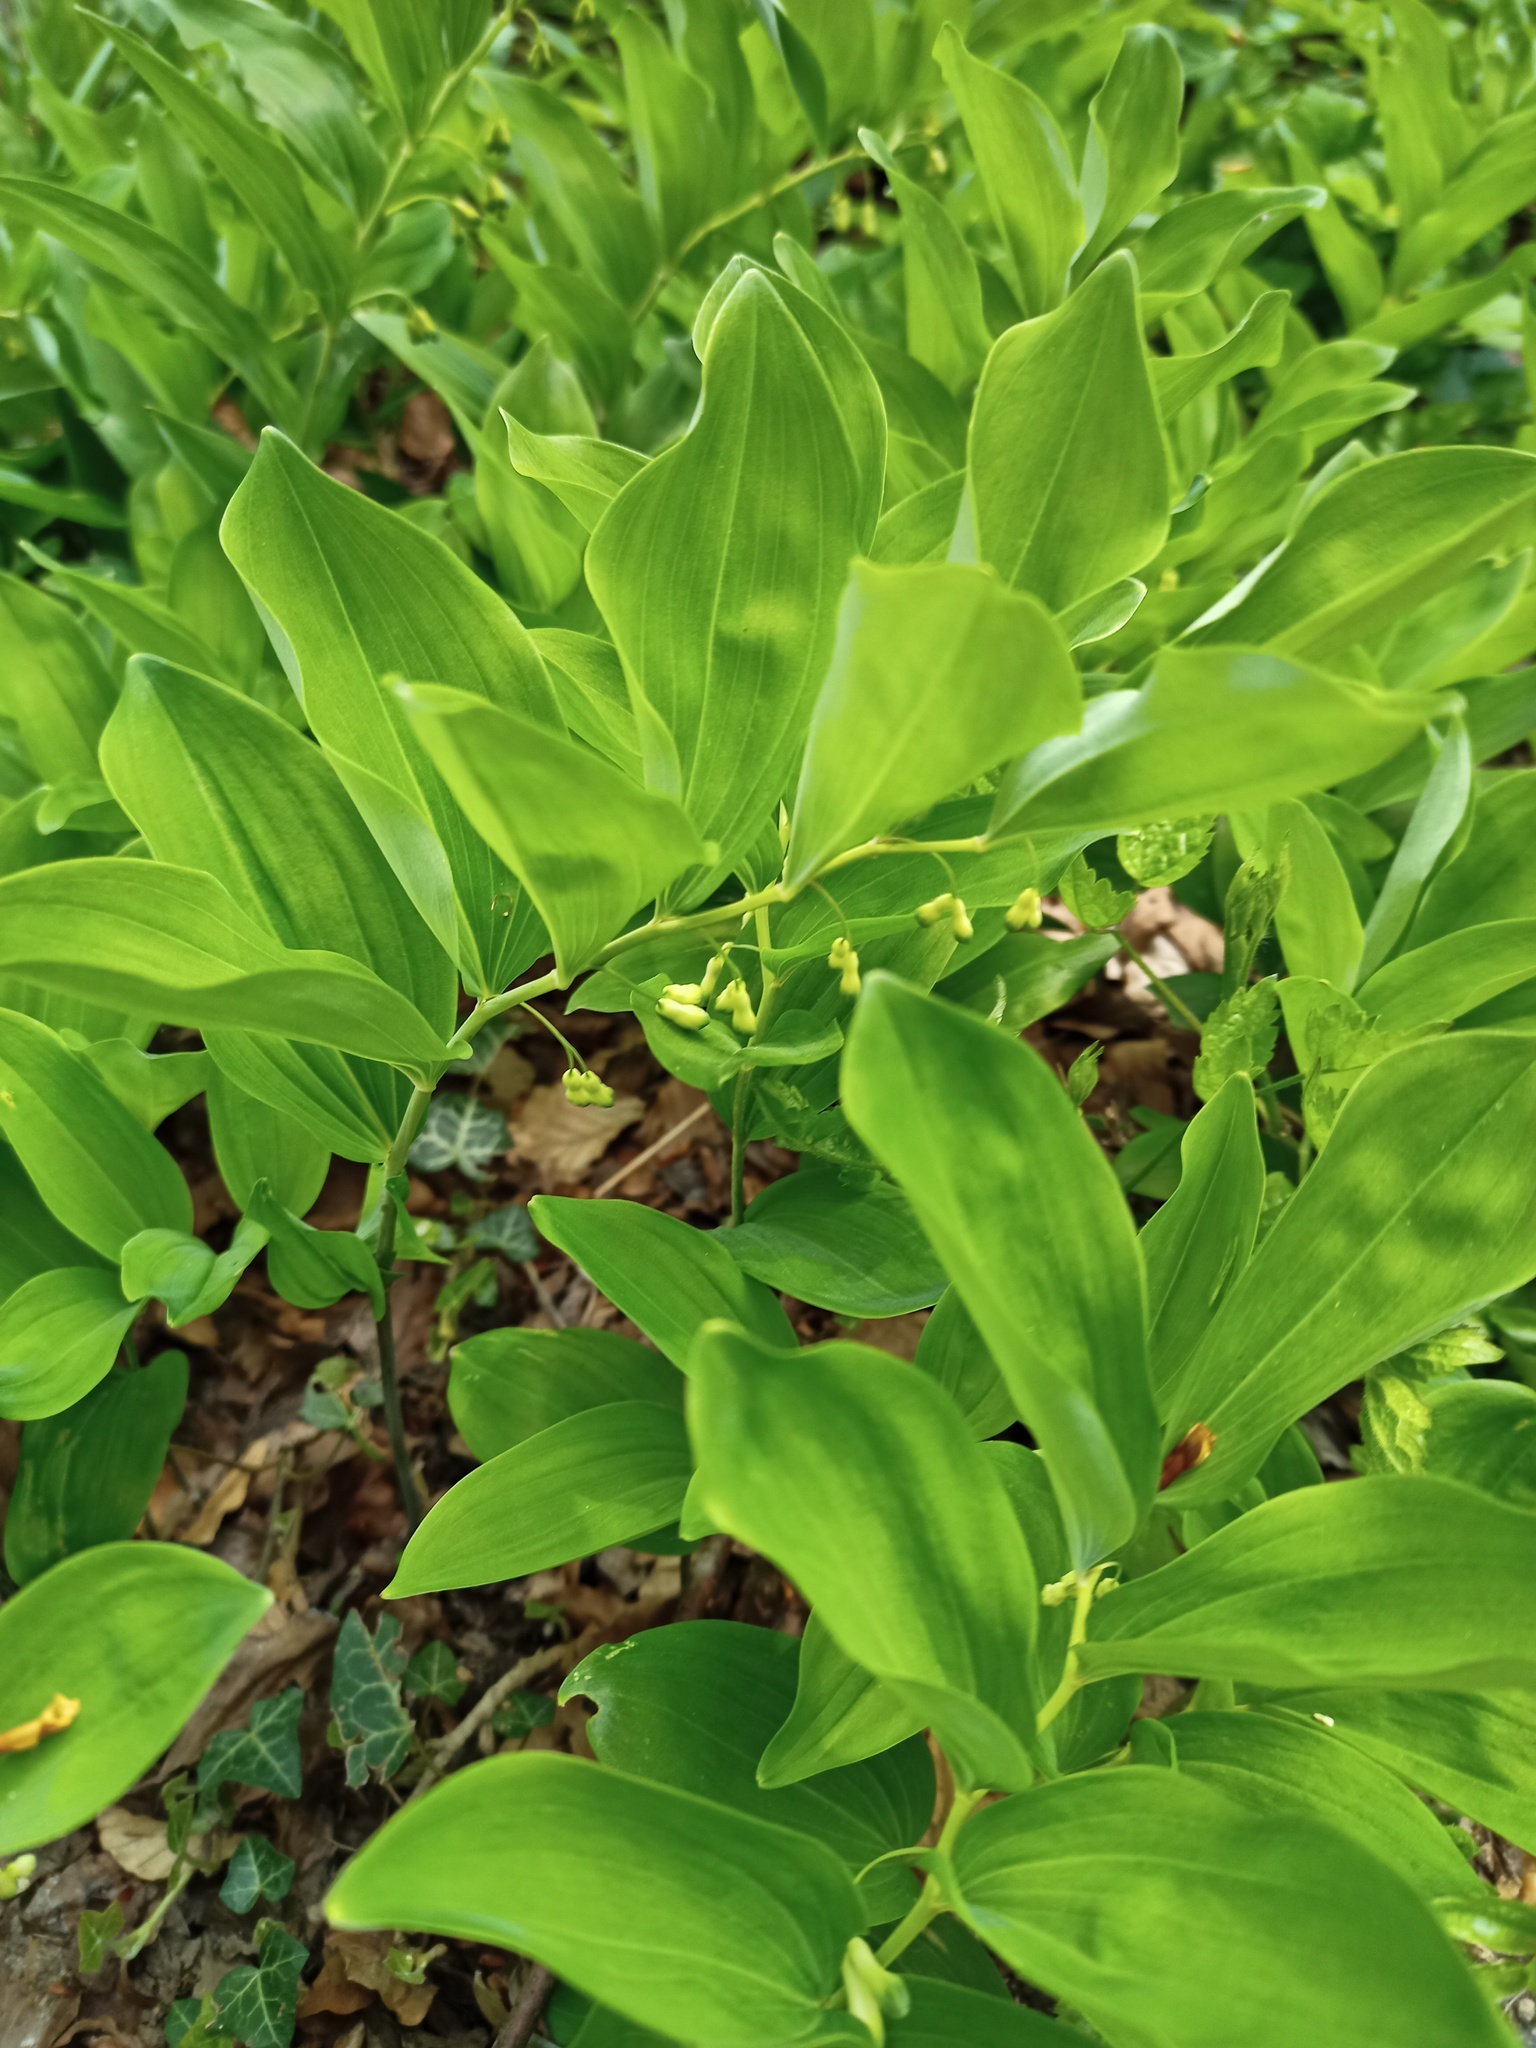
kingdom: Plantae
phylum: Tracheophyta
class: Liliopsida
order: Asparagales
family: Asparagaceae
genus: Polygonatum
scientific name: Polygonatum multiflorum
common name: Solomon's-seal
